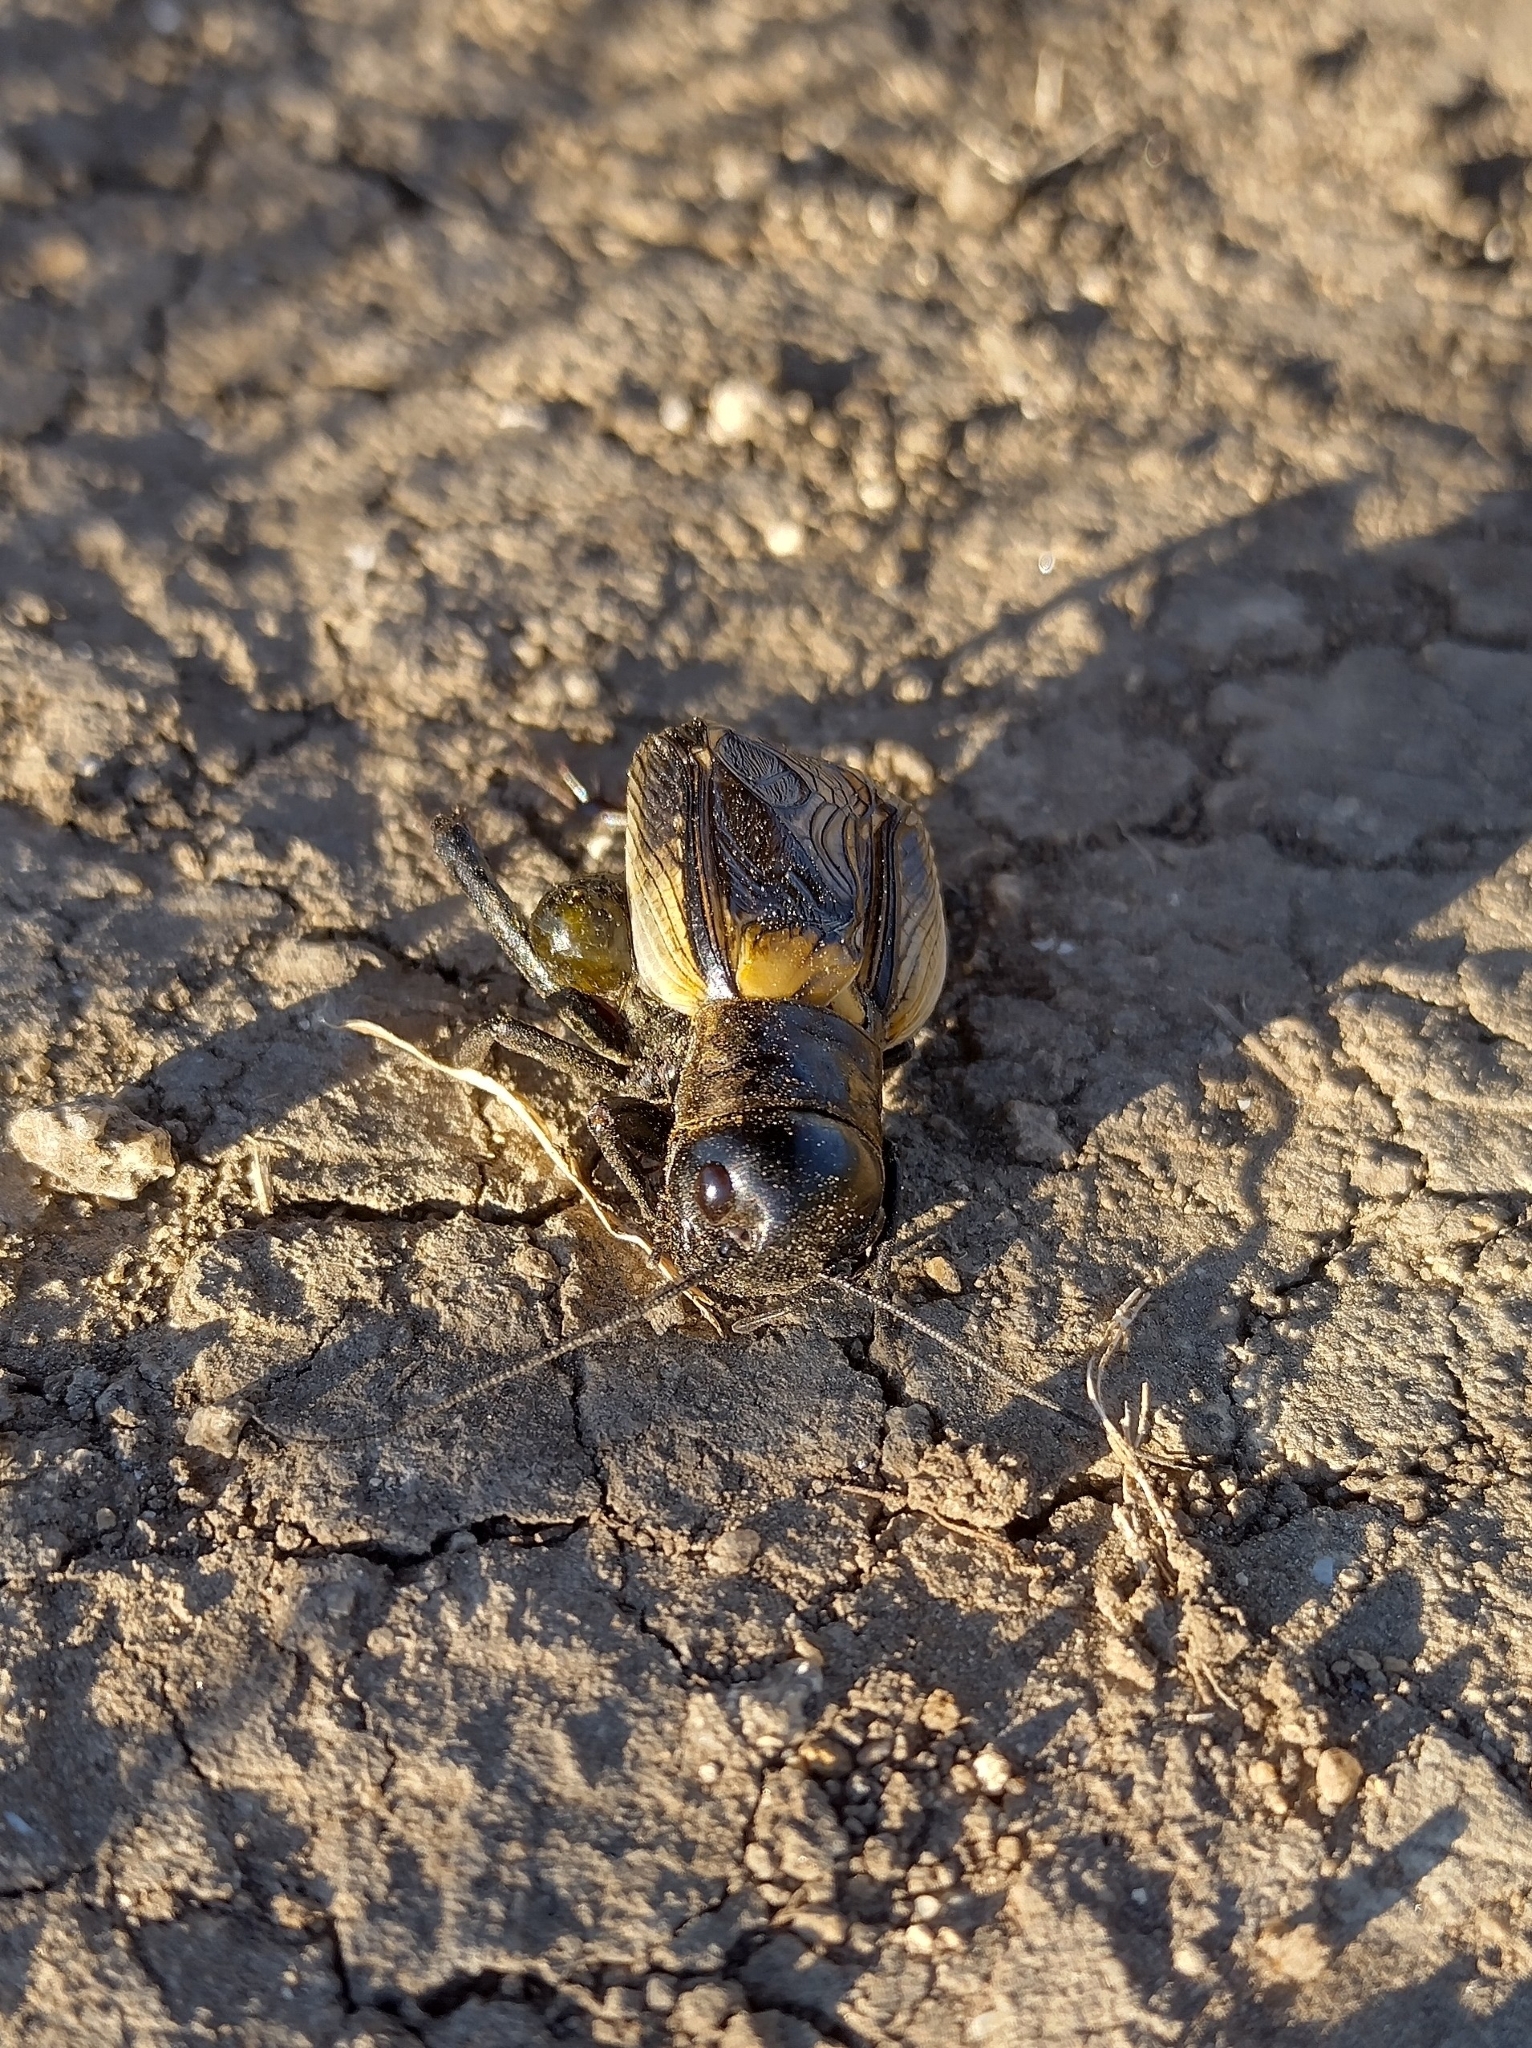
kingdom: Animalia
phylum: Arthropoda
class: Insecta
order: Orthoptera
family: Gryllidae
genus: Gryllus
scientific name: Gryllus campestris
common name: Field cricket
